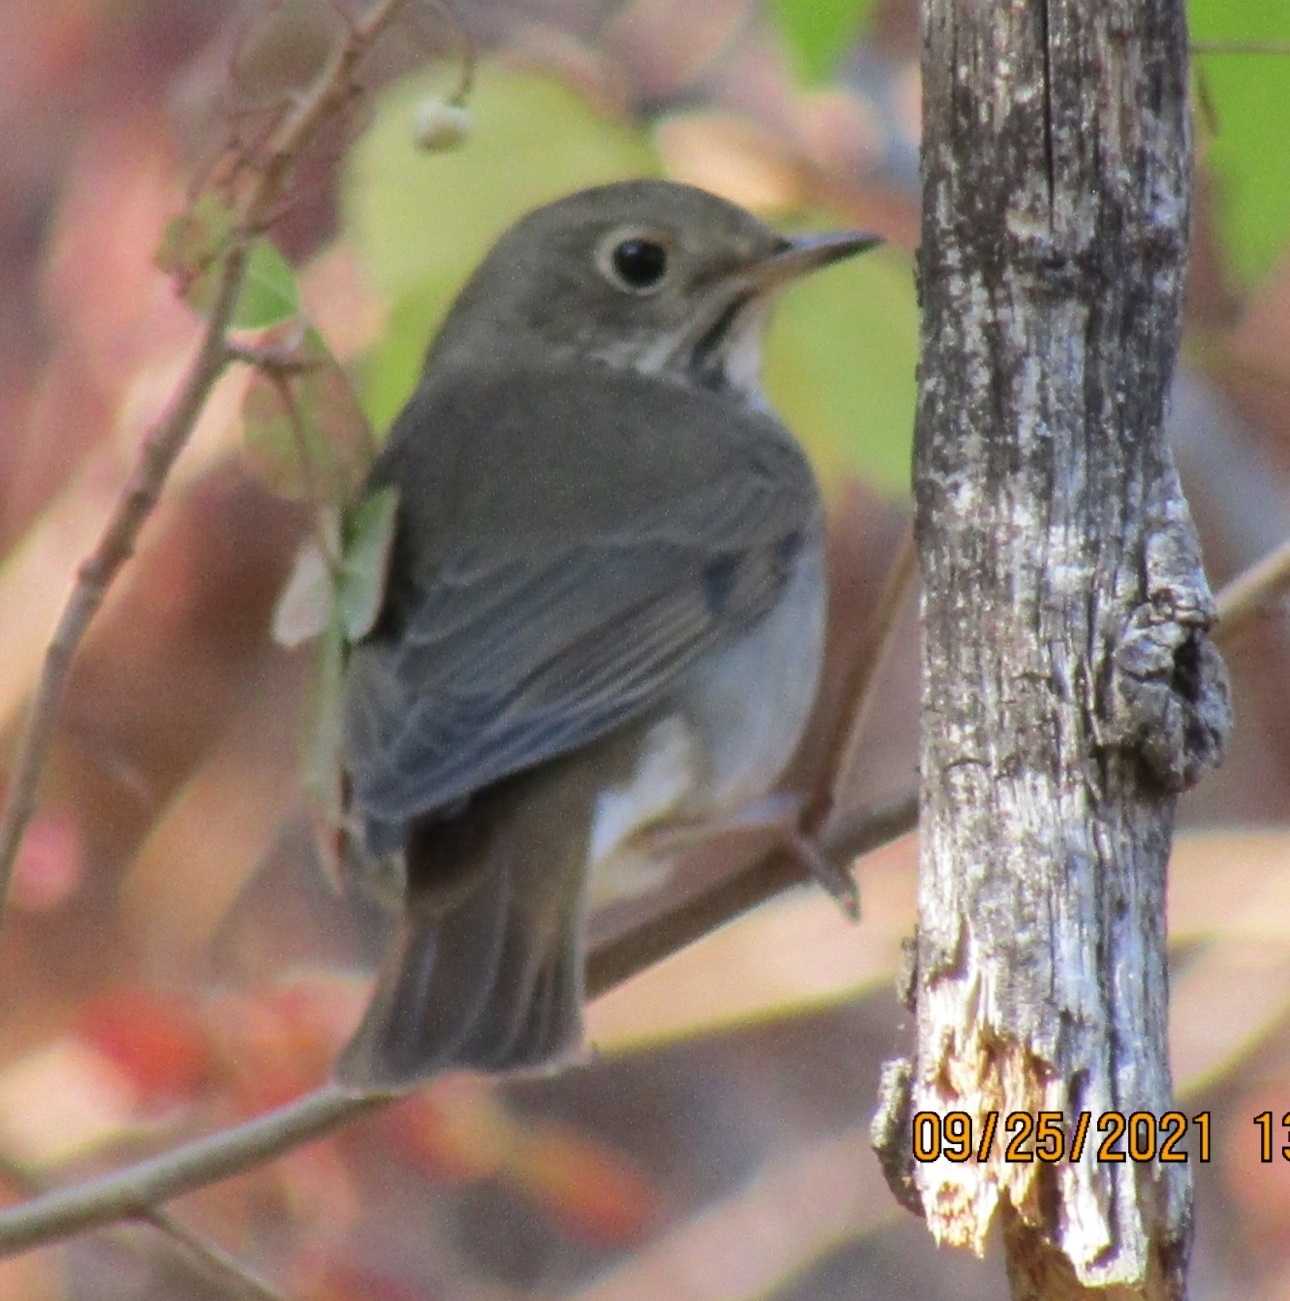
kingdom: Animalia
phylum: Chordata
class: Aves
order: Passeriformes
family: Turdidae
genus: Catharus
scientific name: Catharus guttatus
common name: Hermit thrush
